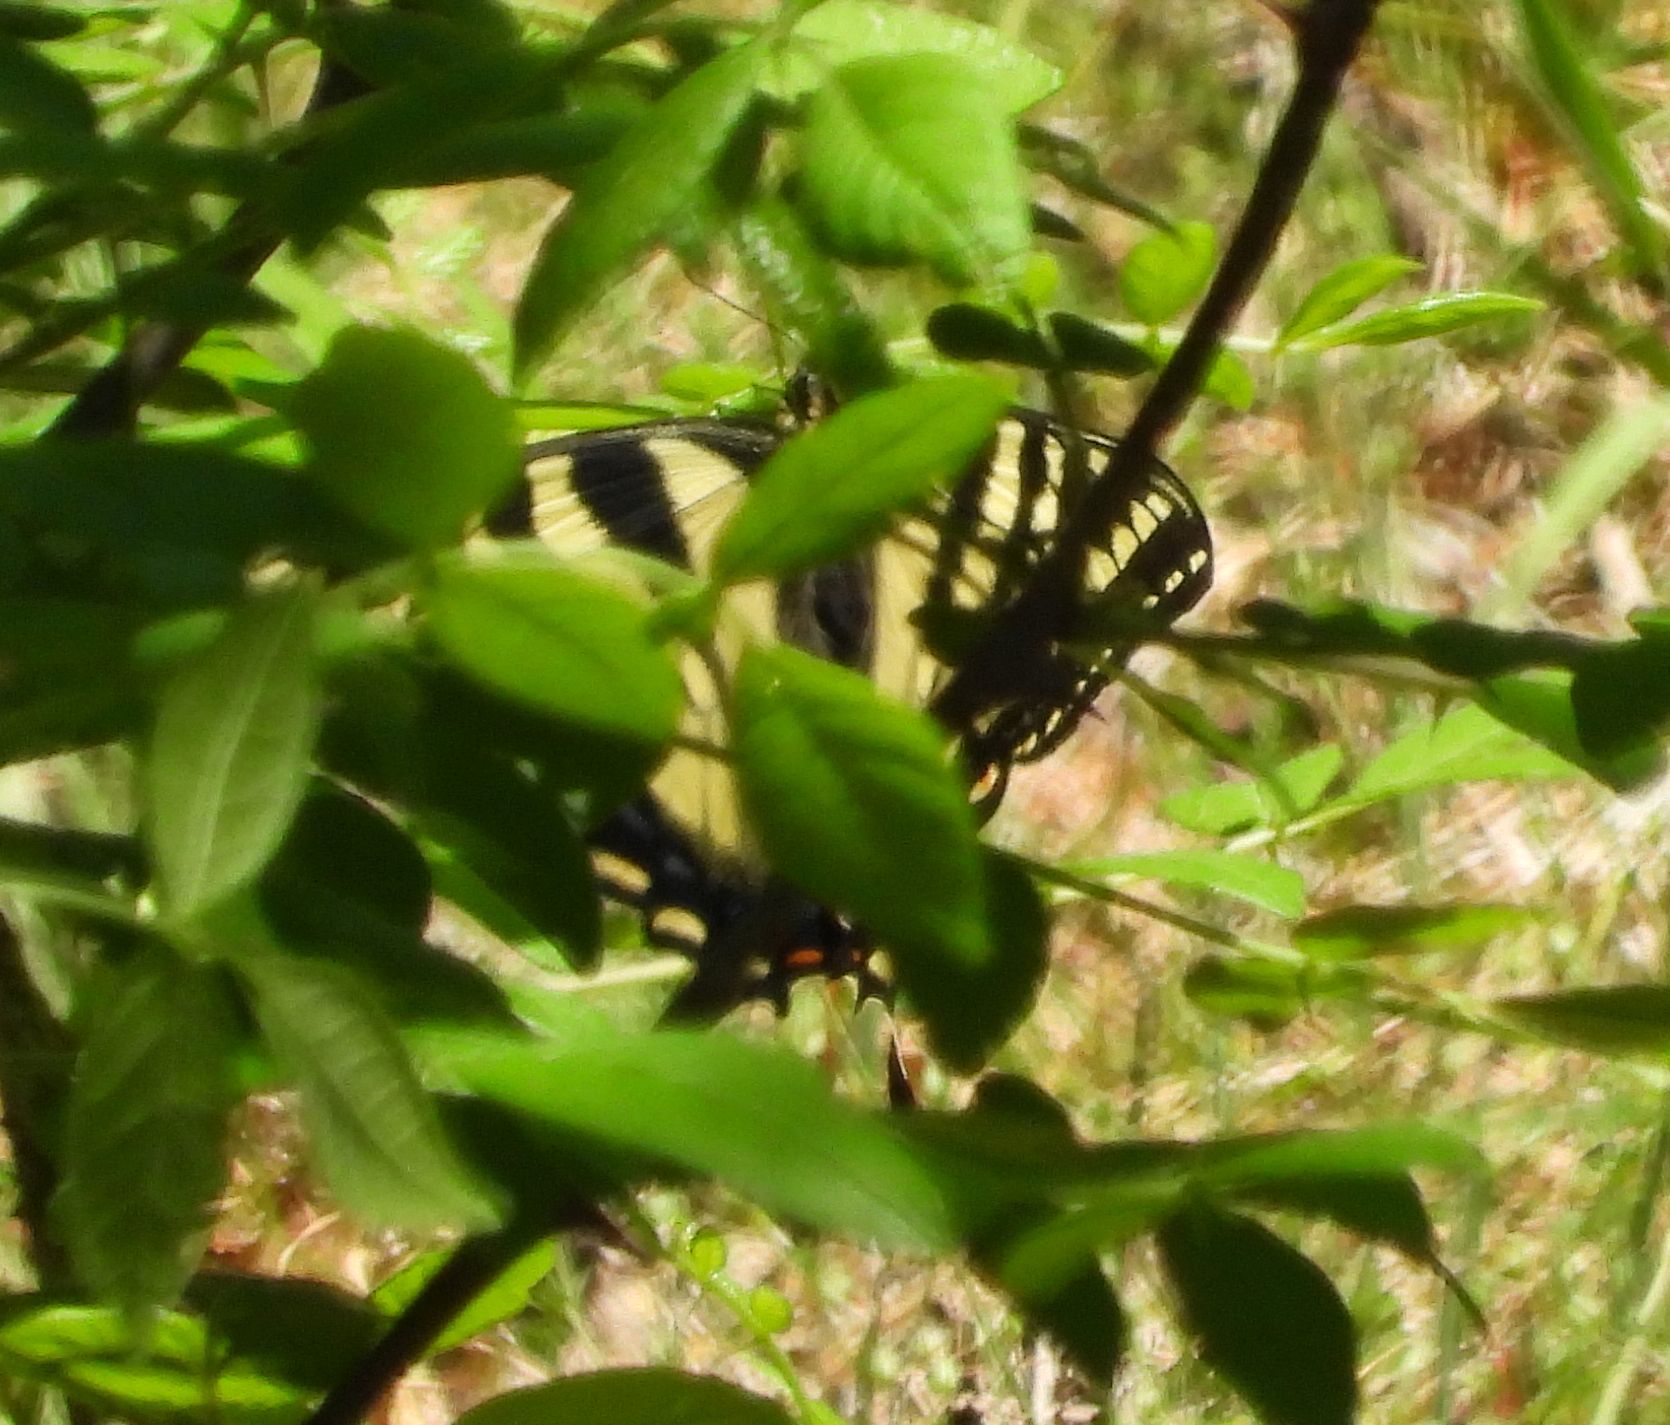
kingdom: Animalia
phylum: Arthropoda
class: Insecta
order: Lepidoptera
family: Papilionidae
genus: Papilio
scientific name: Papilio canadensis
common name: Canadian tiger swallowtail
